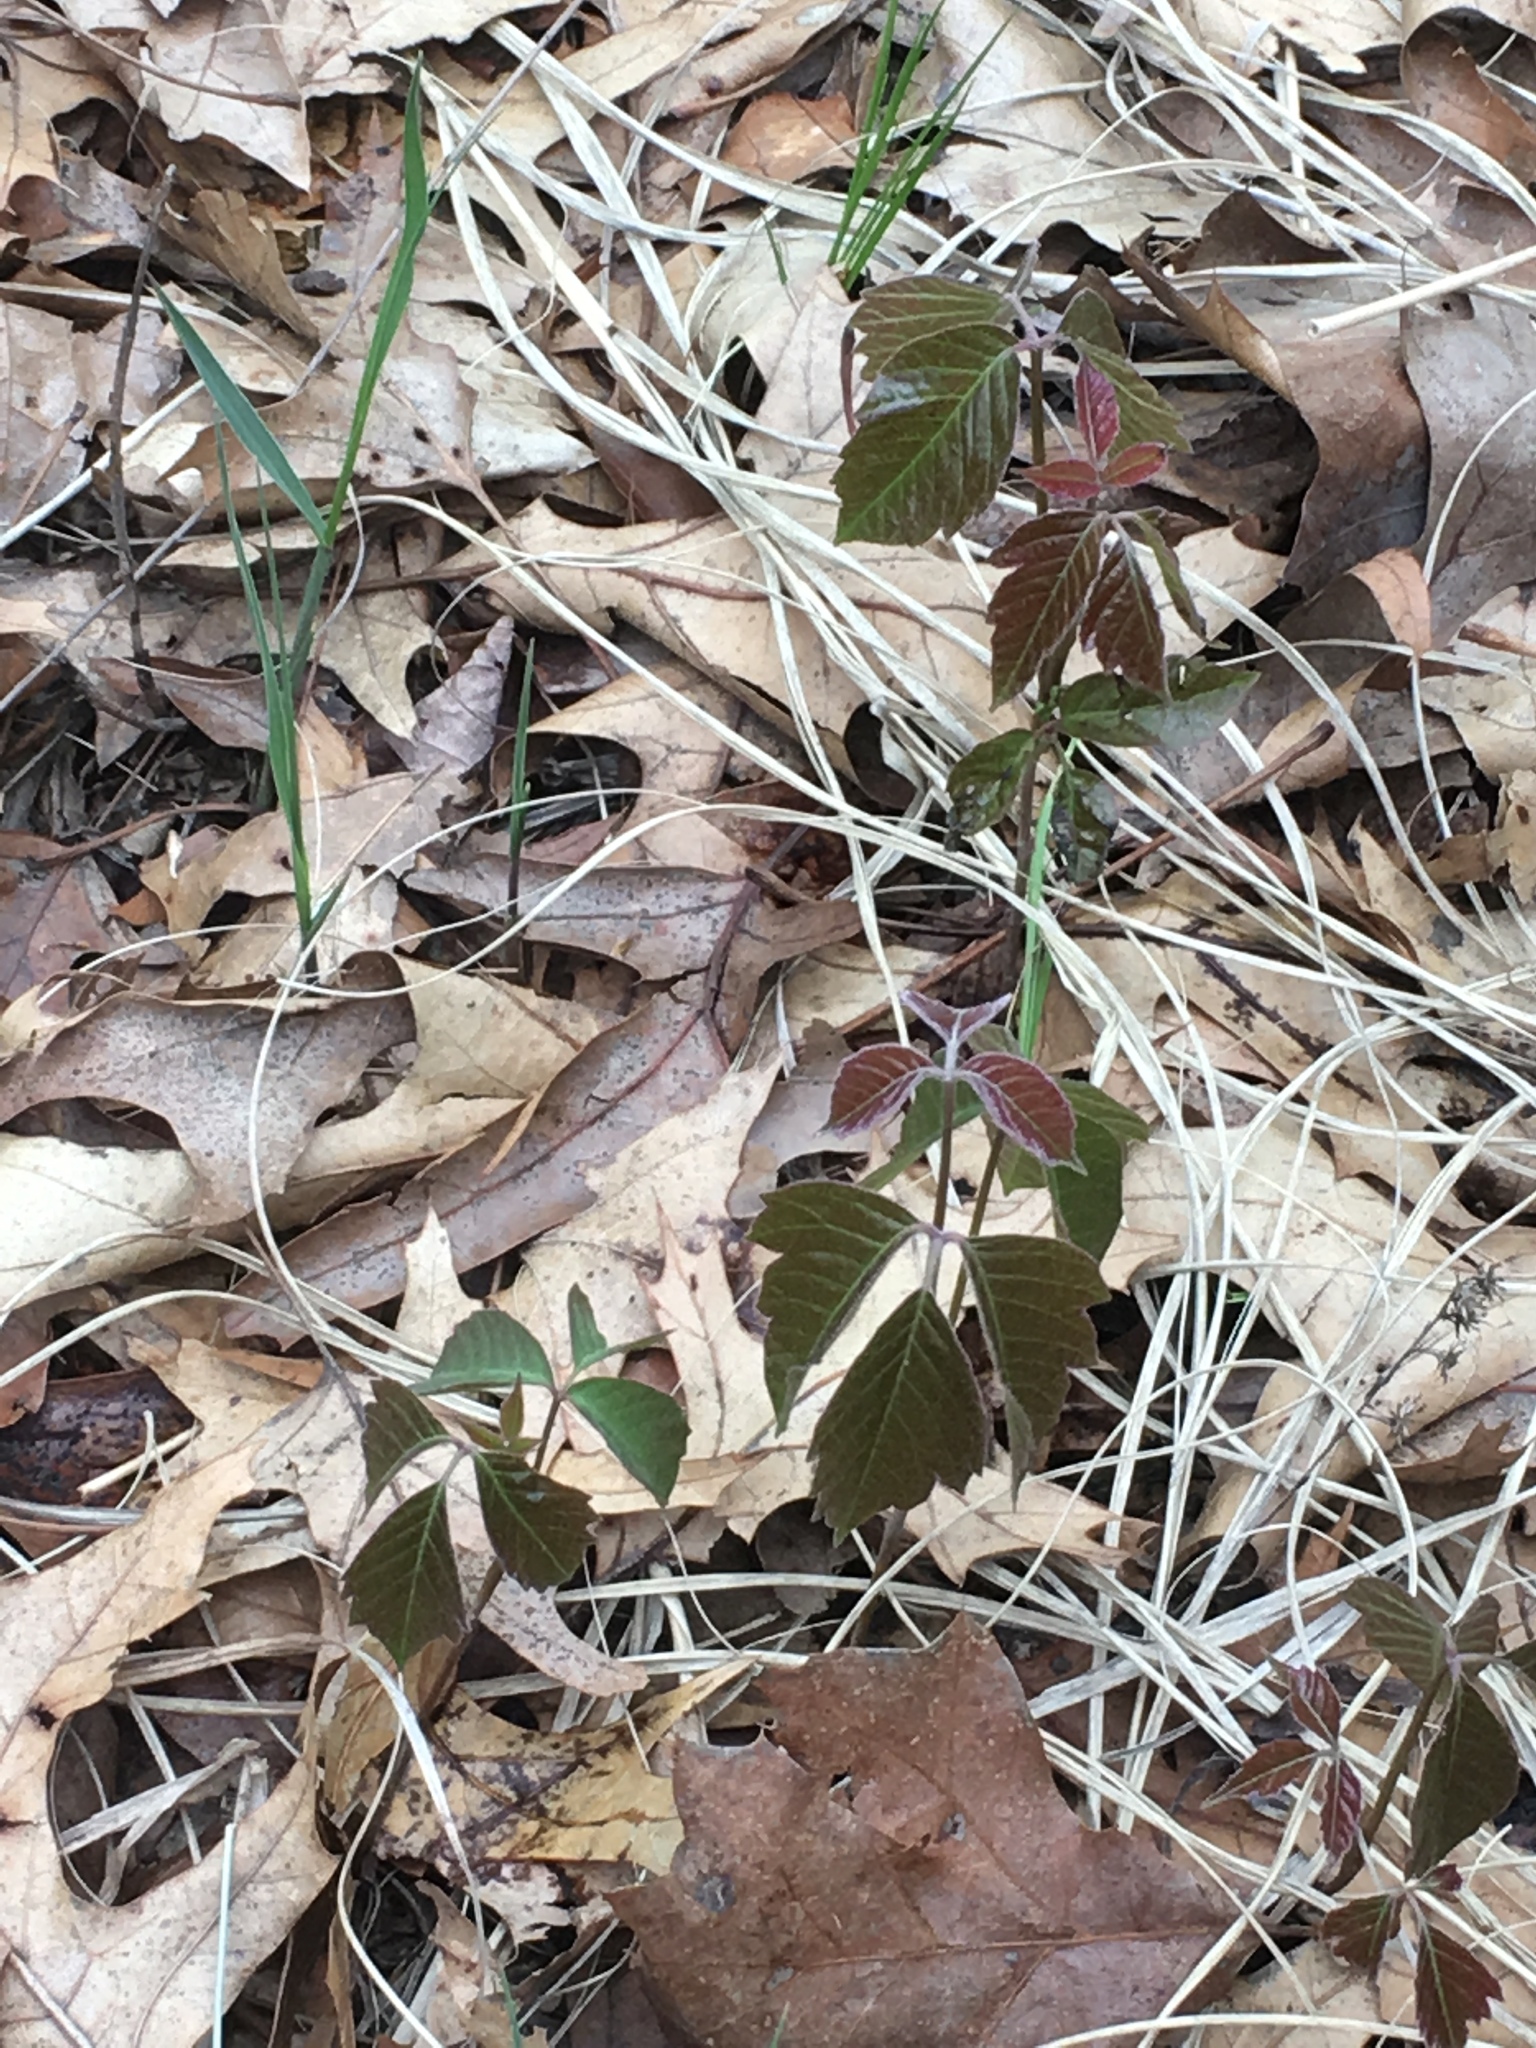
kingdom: Plantae
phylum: Tracheophyta
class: Magnoliopsida
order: Sapindales
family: Anacardiaceae
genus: Toxicodendron
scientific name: Toxicodendron radicans
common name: Poison ivy
